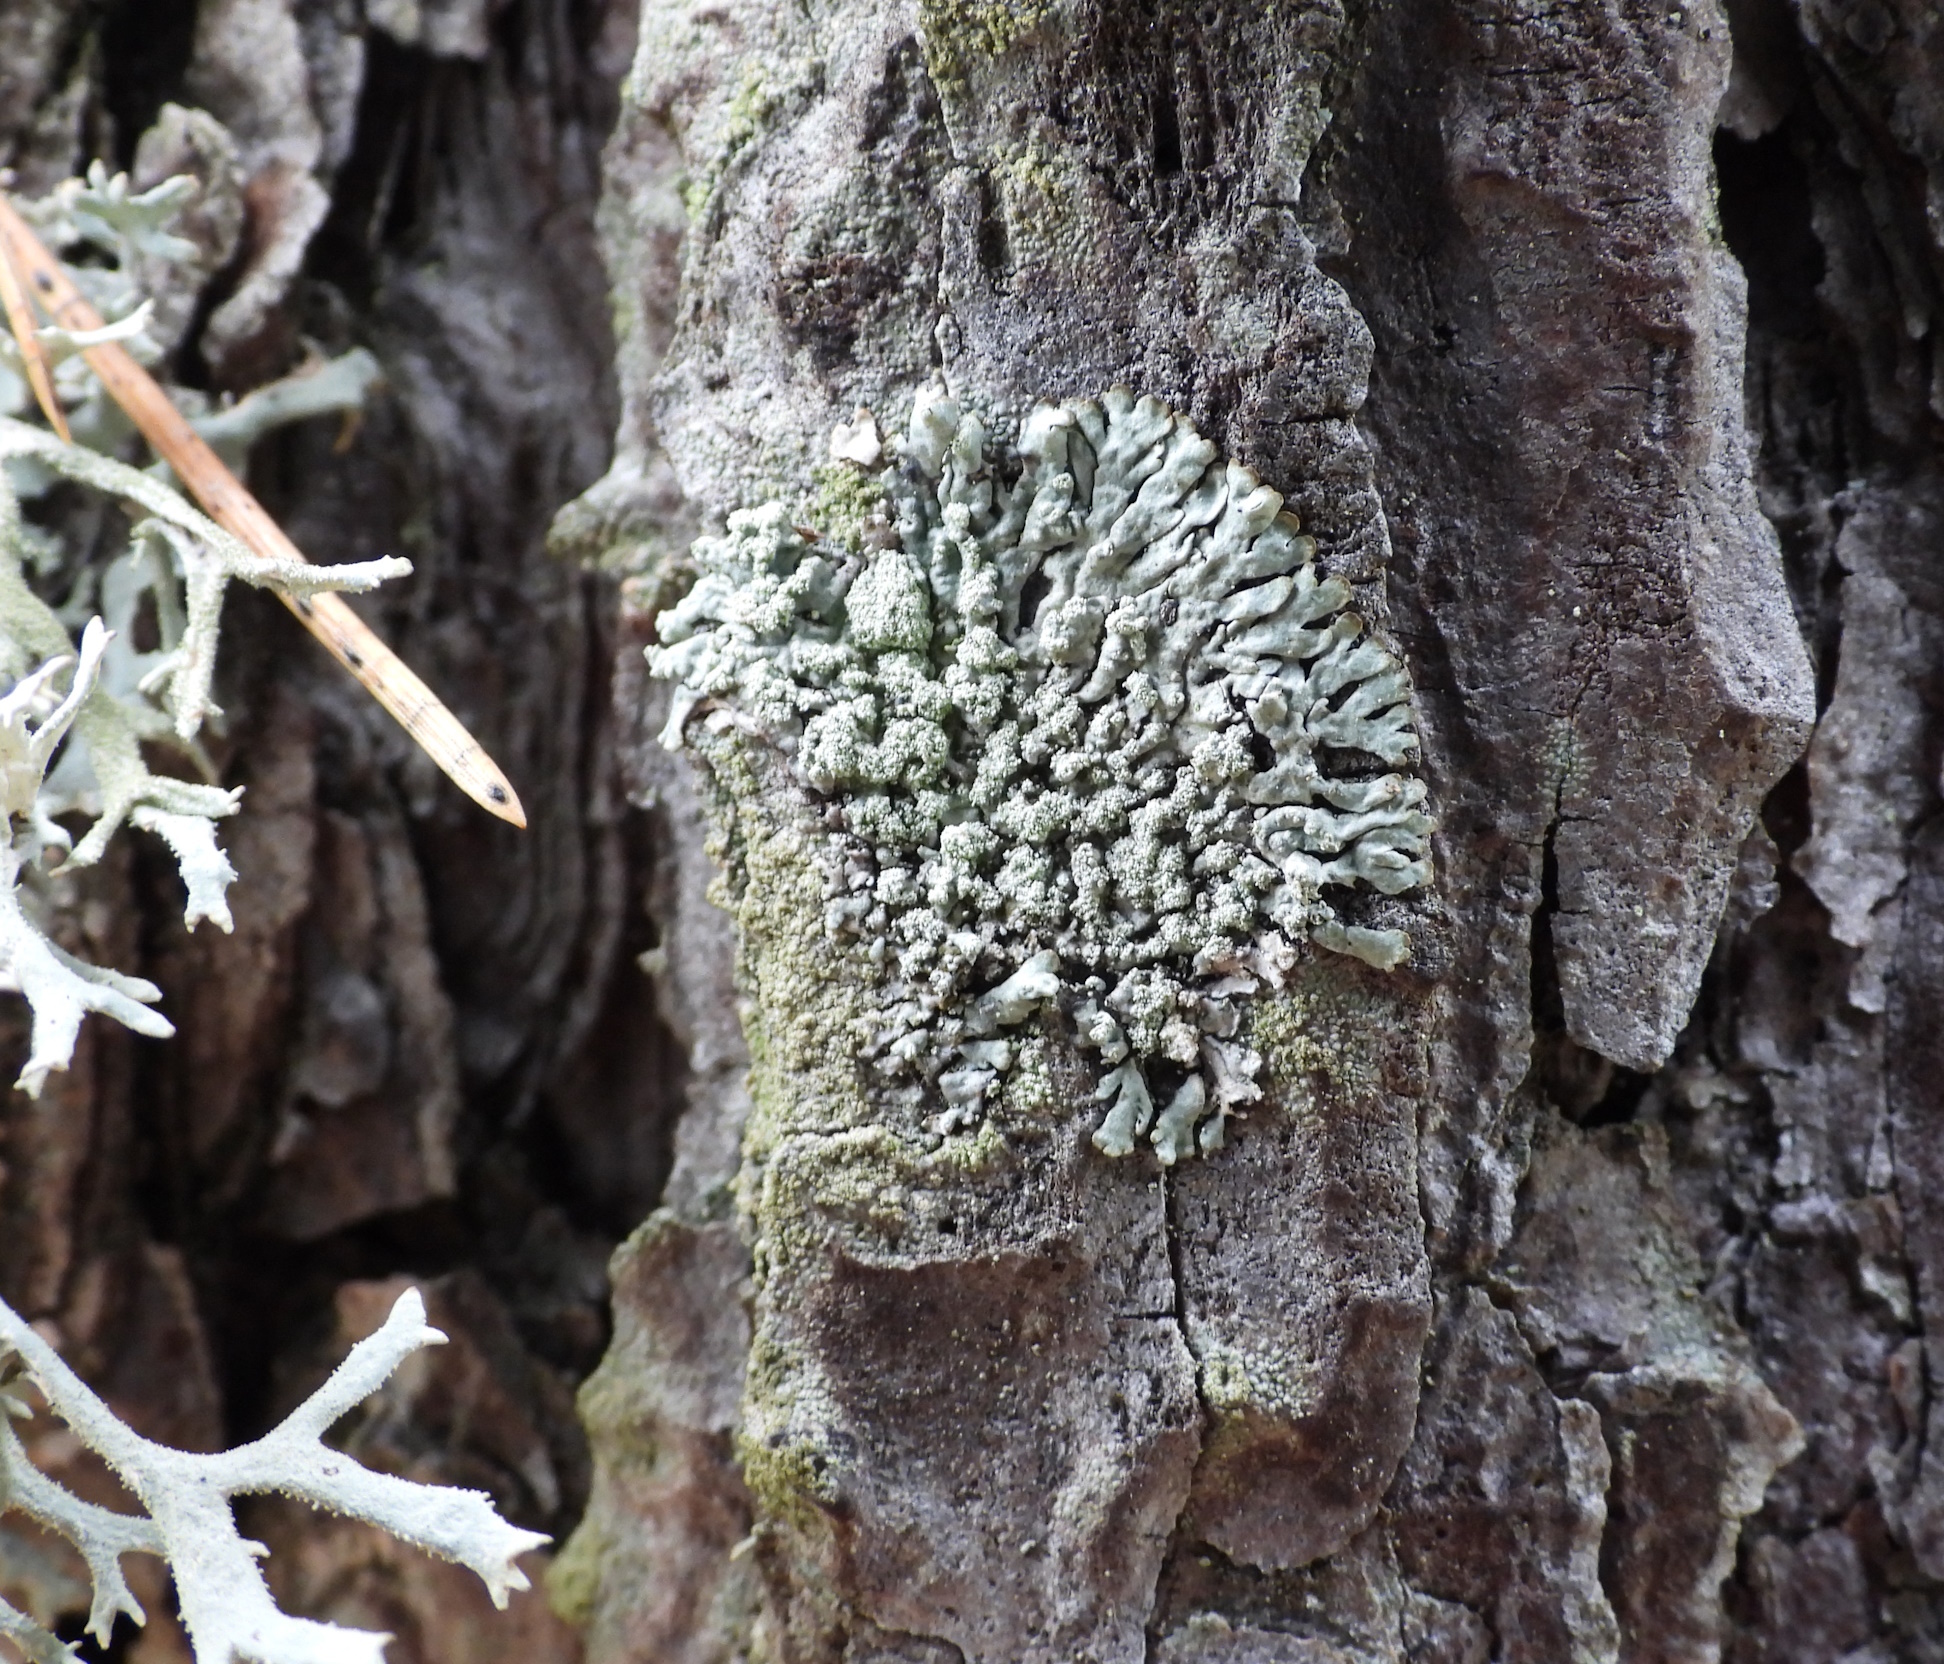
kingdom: Fungi
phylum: Ascomycota
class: Lecanoromycetes
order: Lecanorales
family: Parmeliaceae
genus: Parmeliopsis
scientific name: Parmeliopsis hyperopta
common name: Grey starburst lichen
